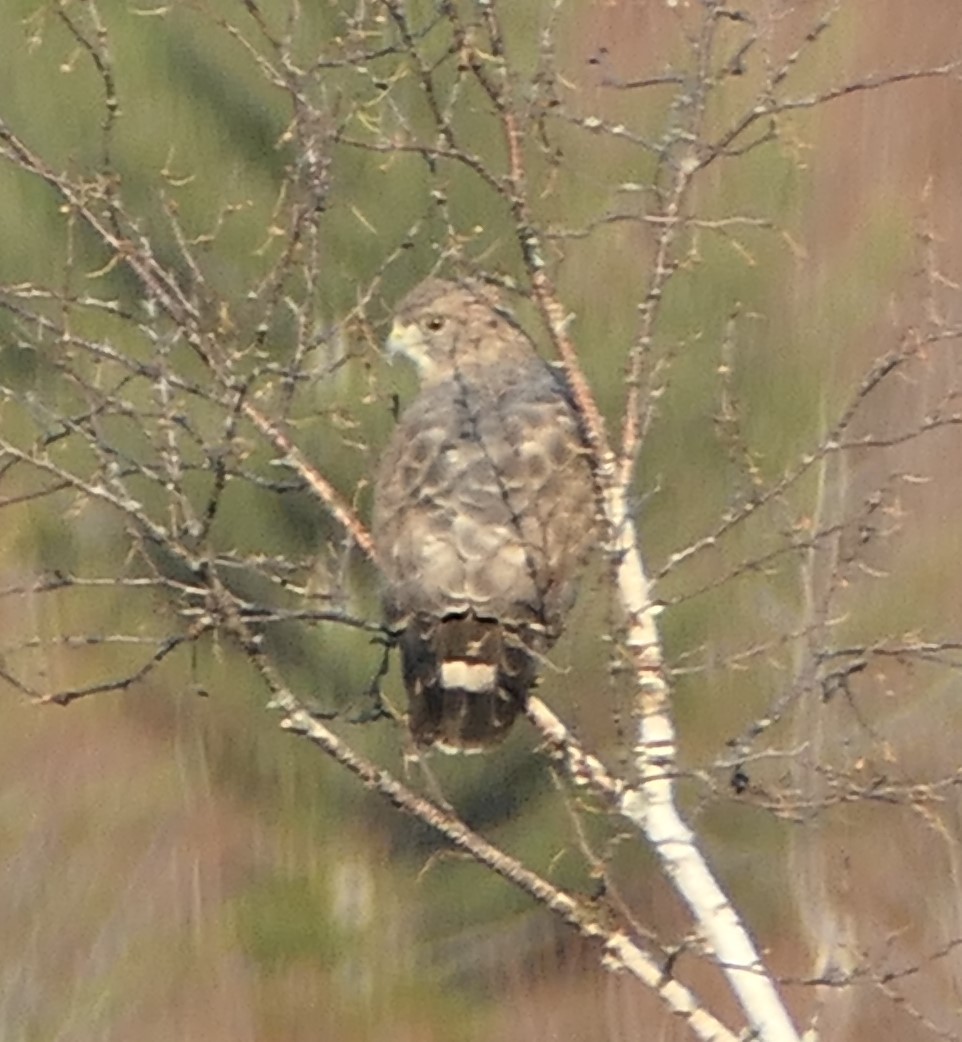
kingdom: Animalia
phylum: Chordata
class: Aves
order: Accipitriformes
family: Accipitridae
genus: Buteo
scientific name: Buteo platypterus
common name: Broad-winged hawk
